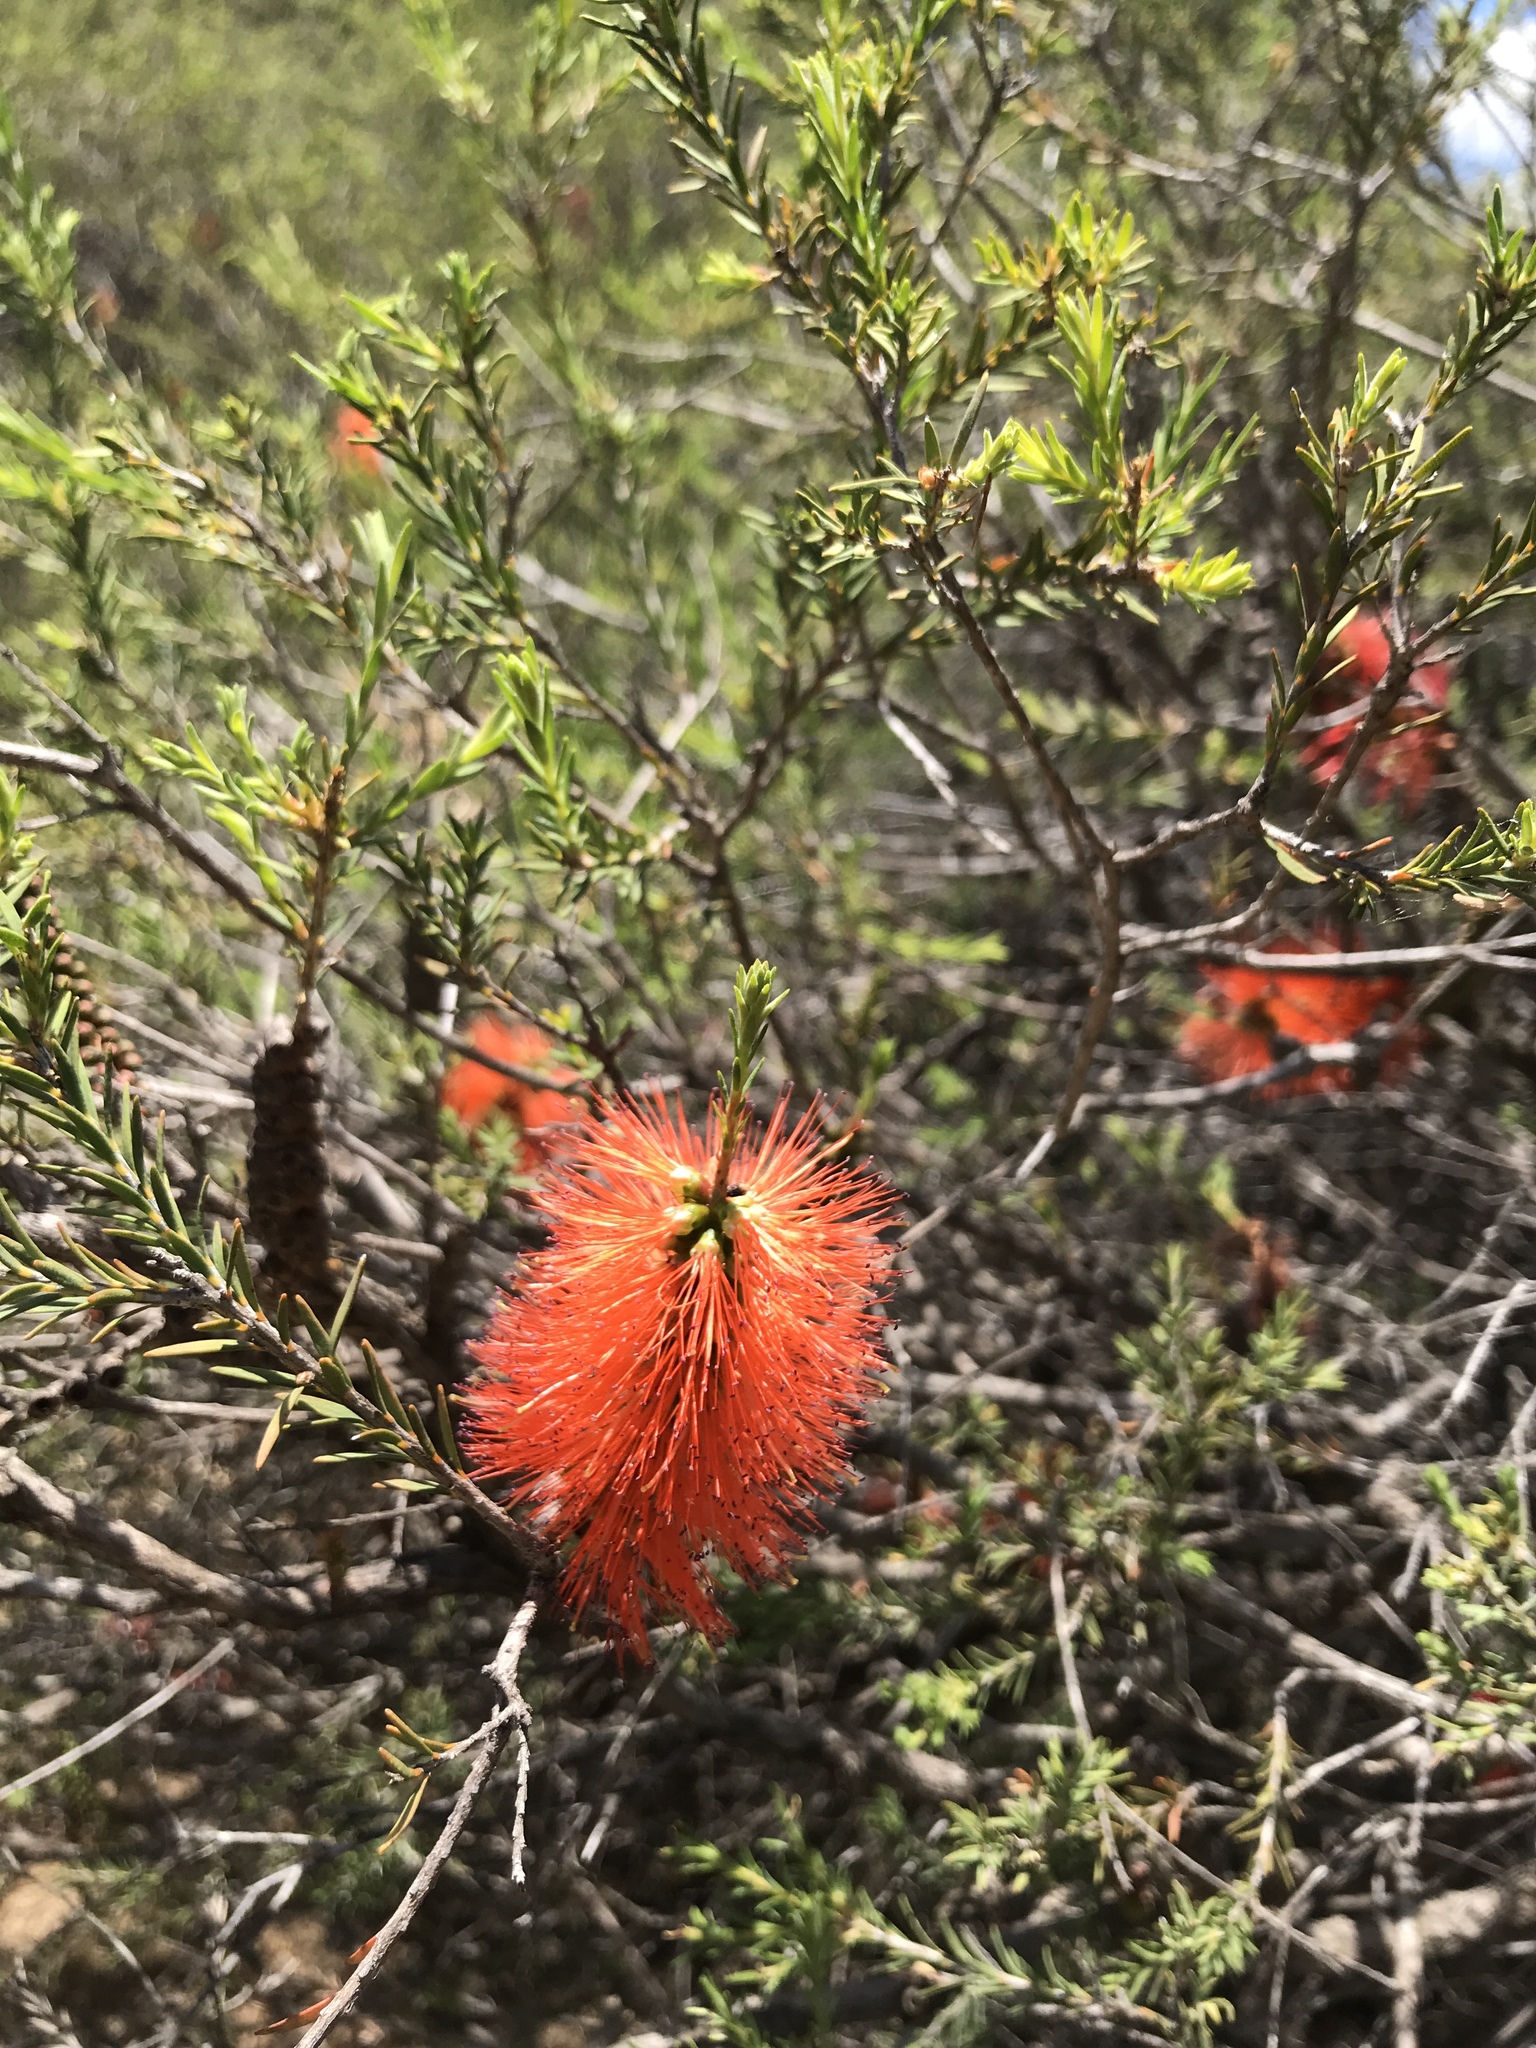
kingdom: Plantae
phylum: Tracheophyta
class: Magnoliopsida
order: Myrtales
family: Myrtaceae
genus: Melaleuca
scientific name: Melaleuca lateritia
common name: Robin red-breast
